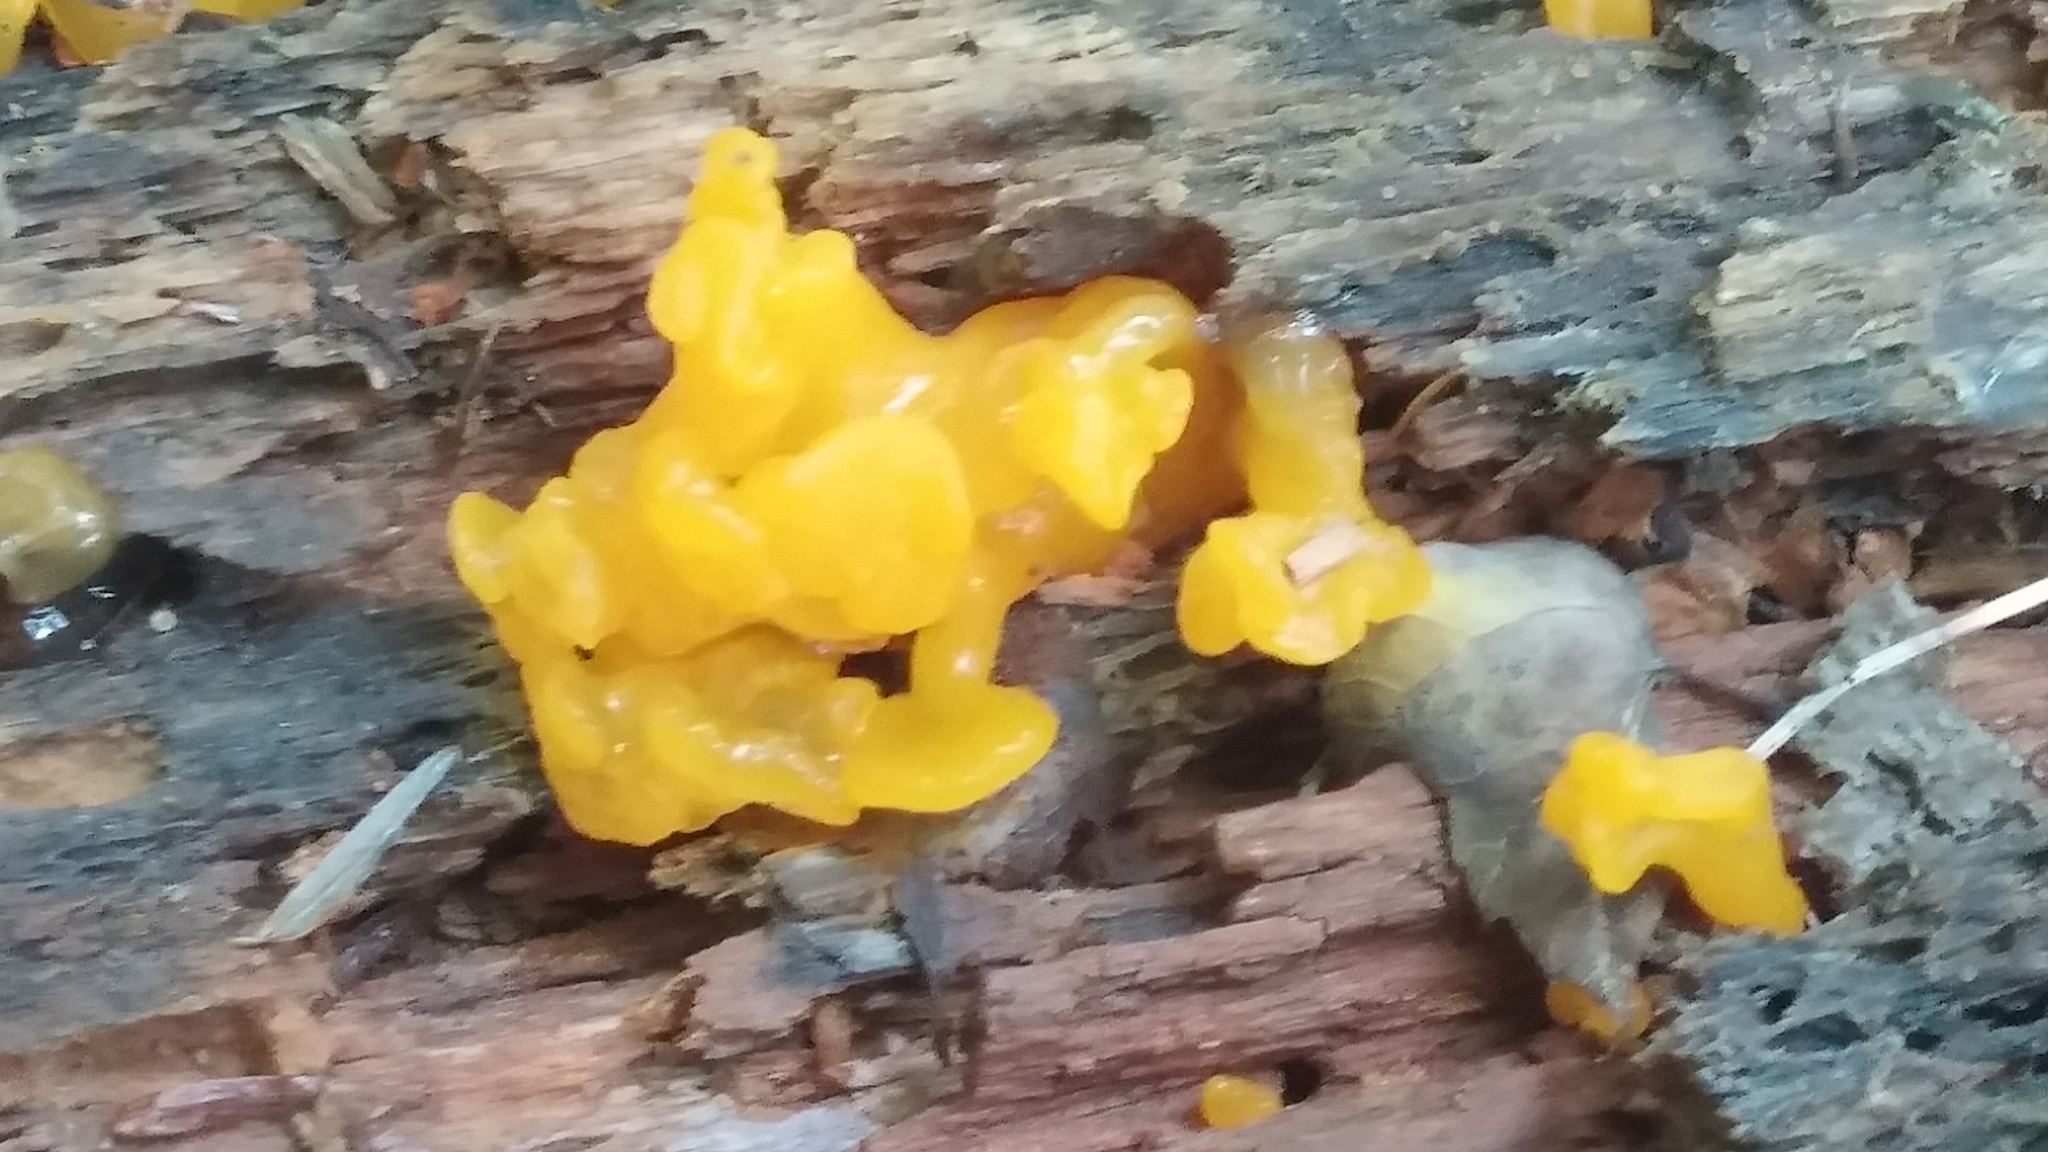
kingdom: Fungi
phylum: Basidiomycota
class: Dacrymycetes
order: Dacrymycetales
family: Dacrymycetaceae
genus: Dacrymyces
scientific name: Dacrymyces chrysospermus
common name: Orange jelly spot
